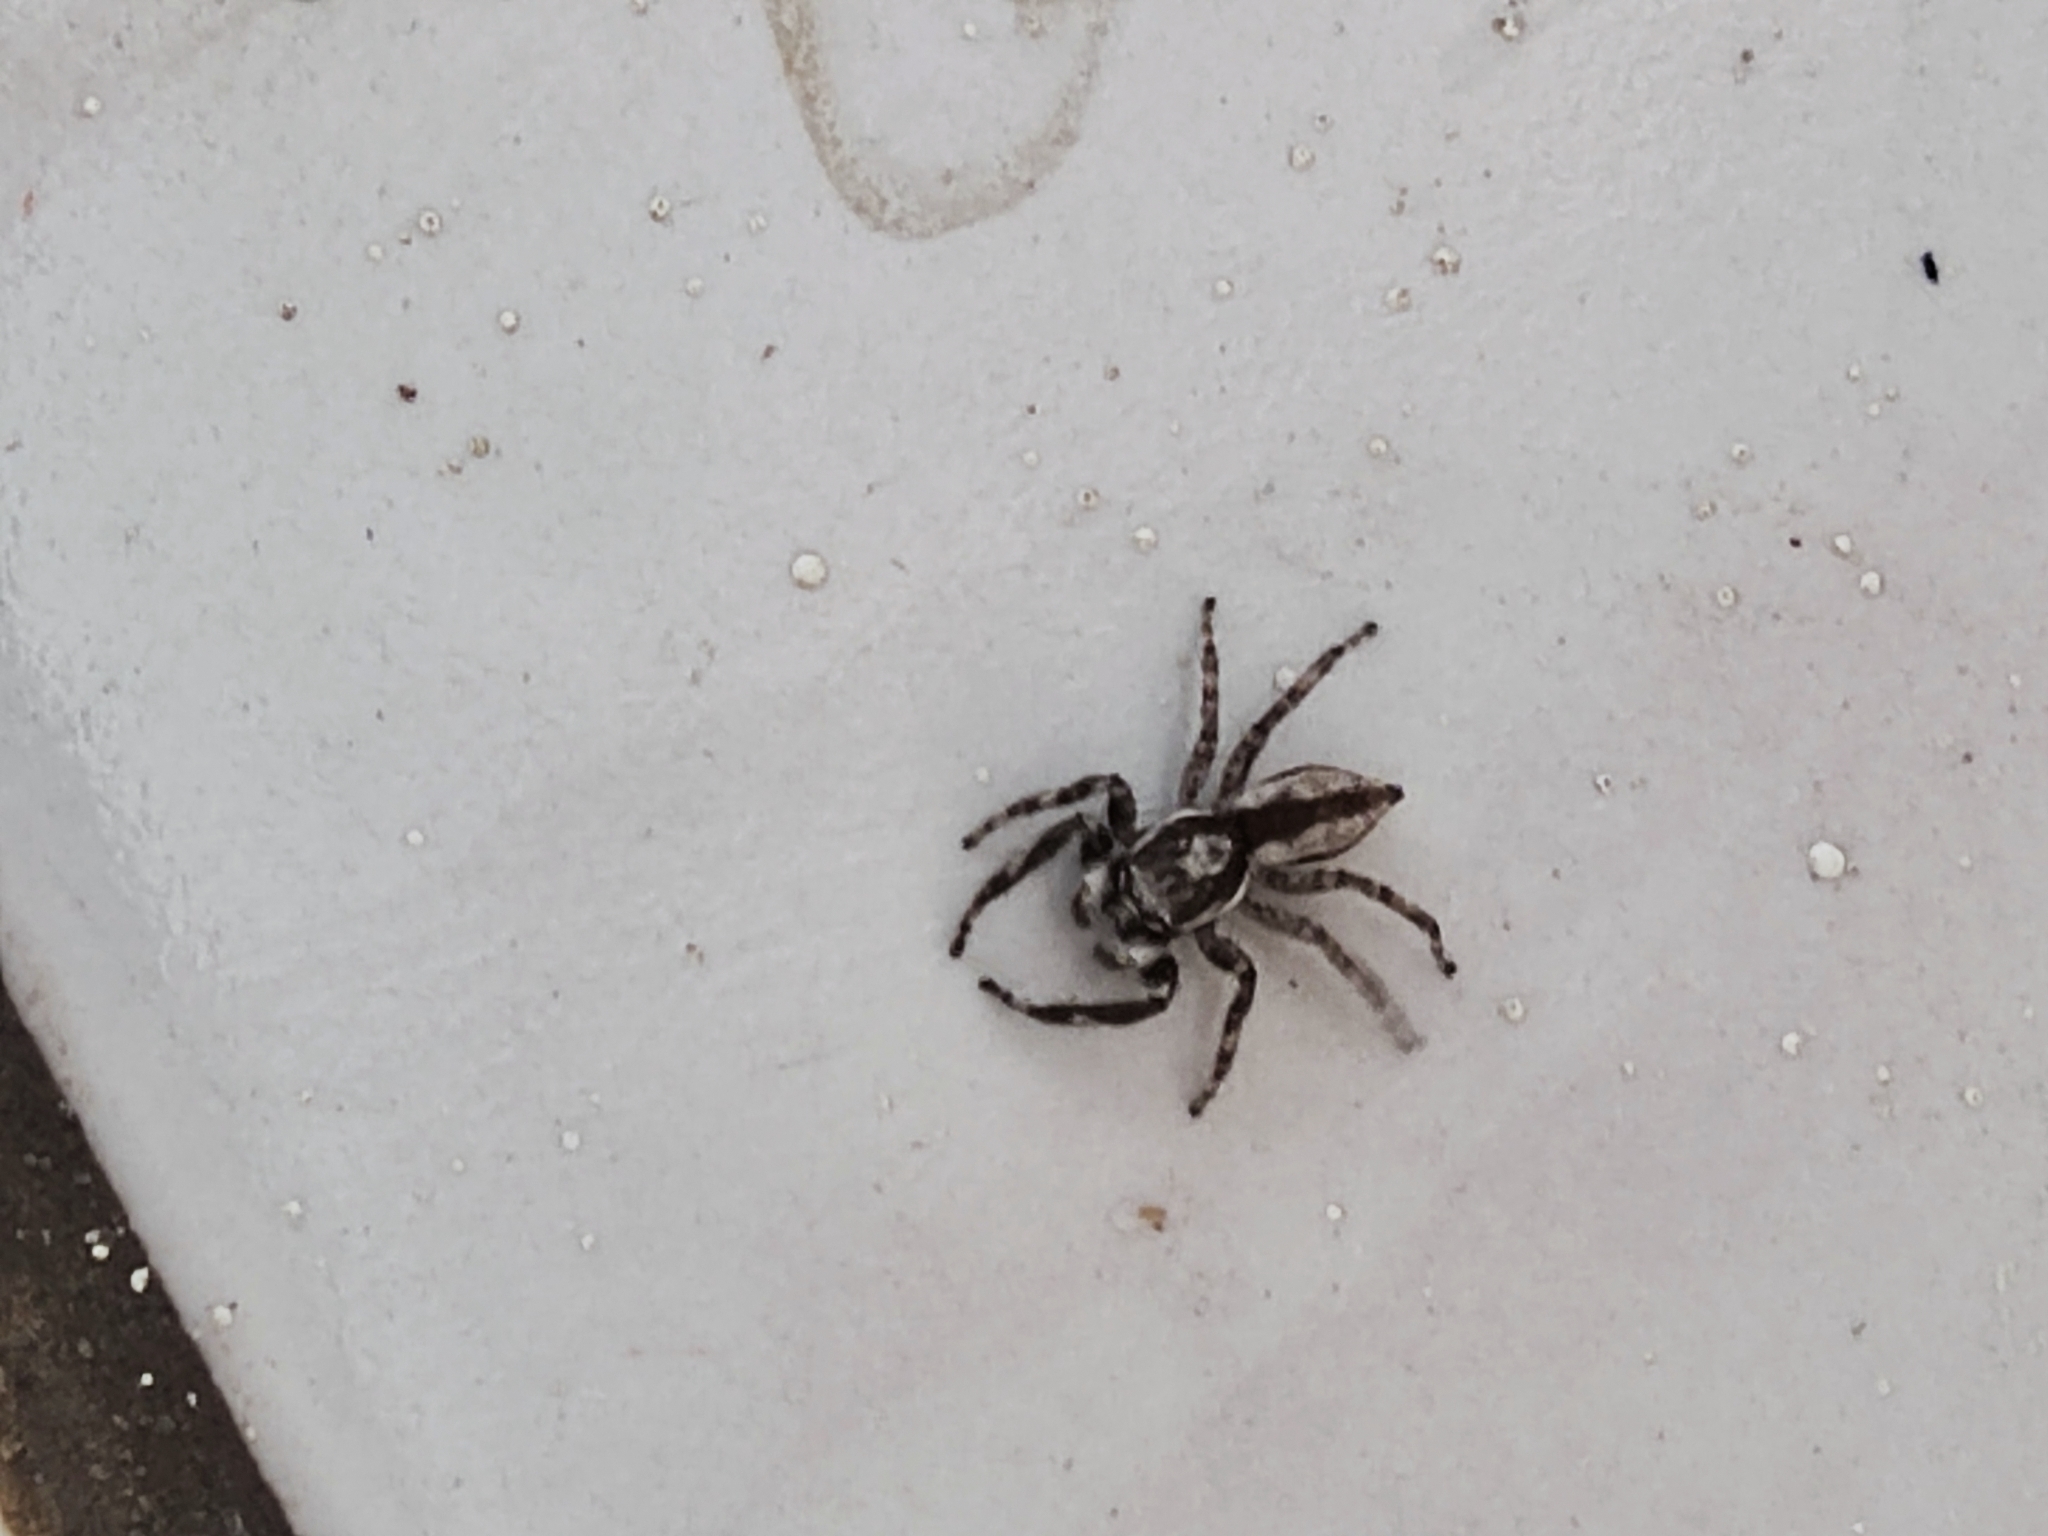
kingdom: Animalia
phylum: Arthropoda
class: Arachnida
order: Araneae
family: Salticidae
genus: Menemerus
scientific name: Menemerus bivittatus
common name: Gray wall jumper
